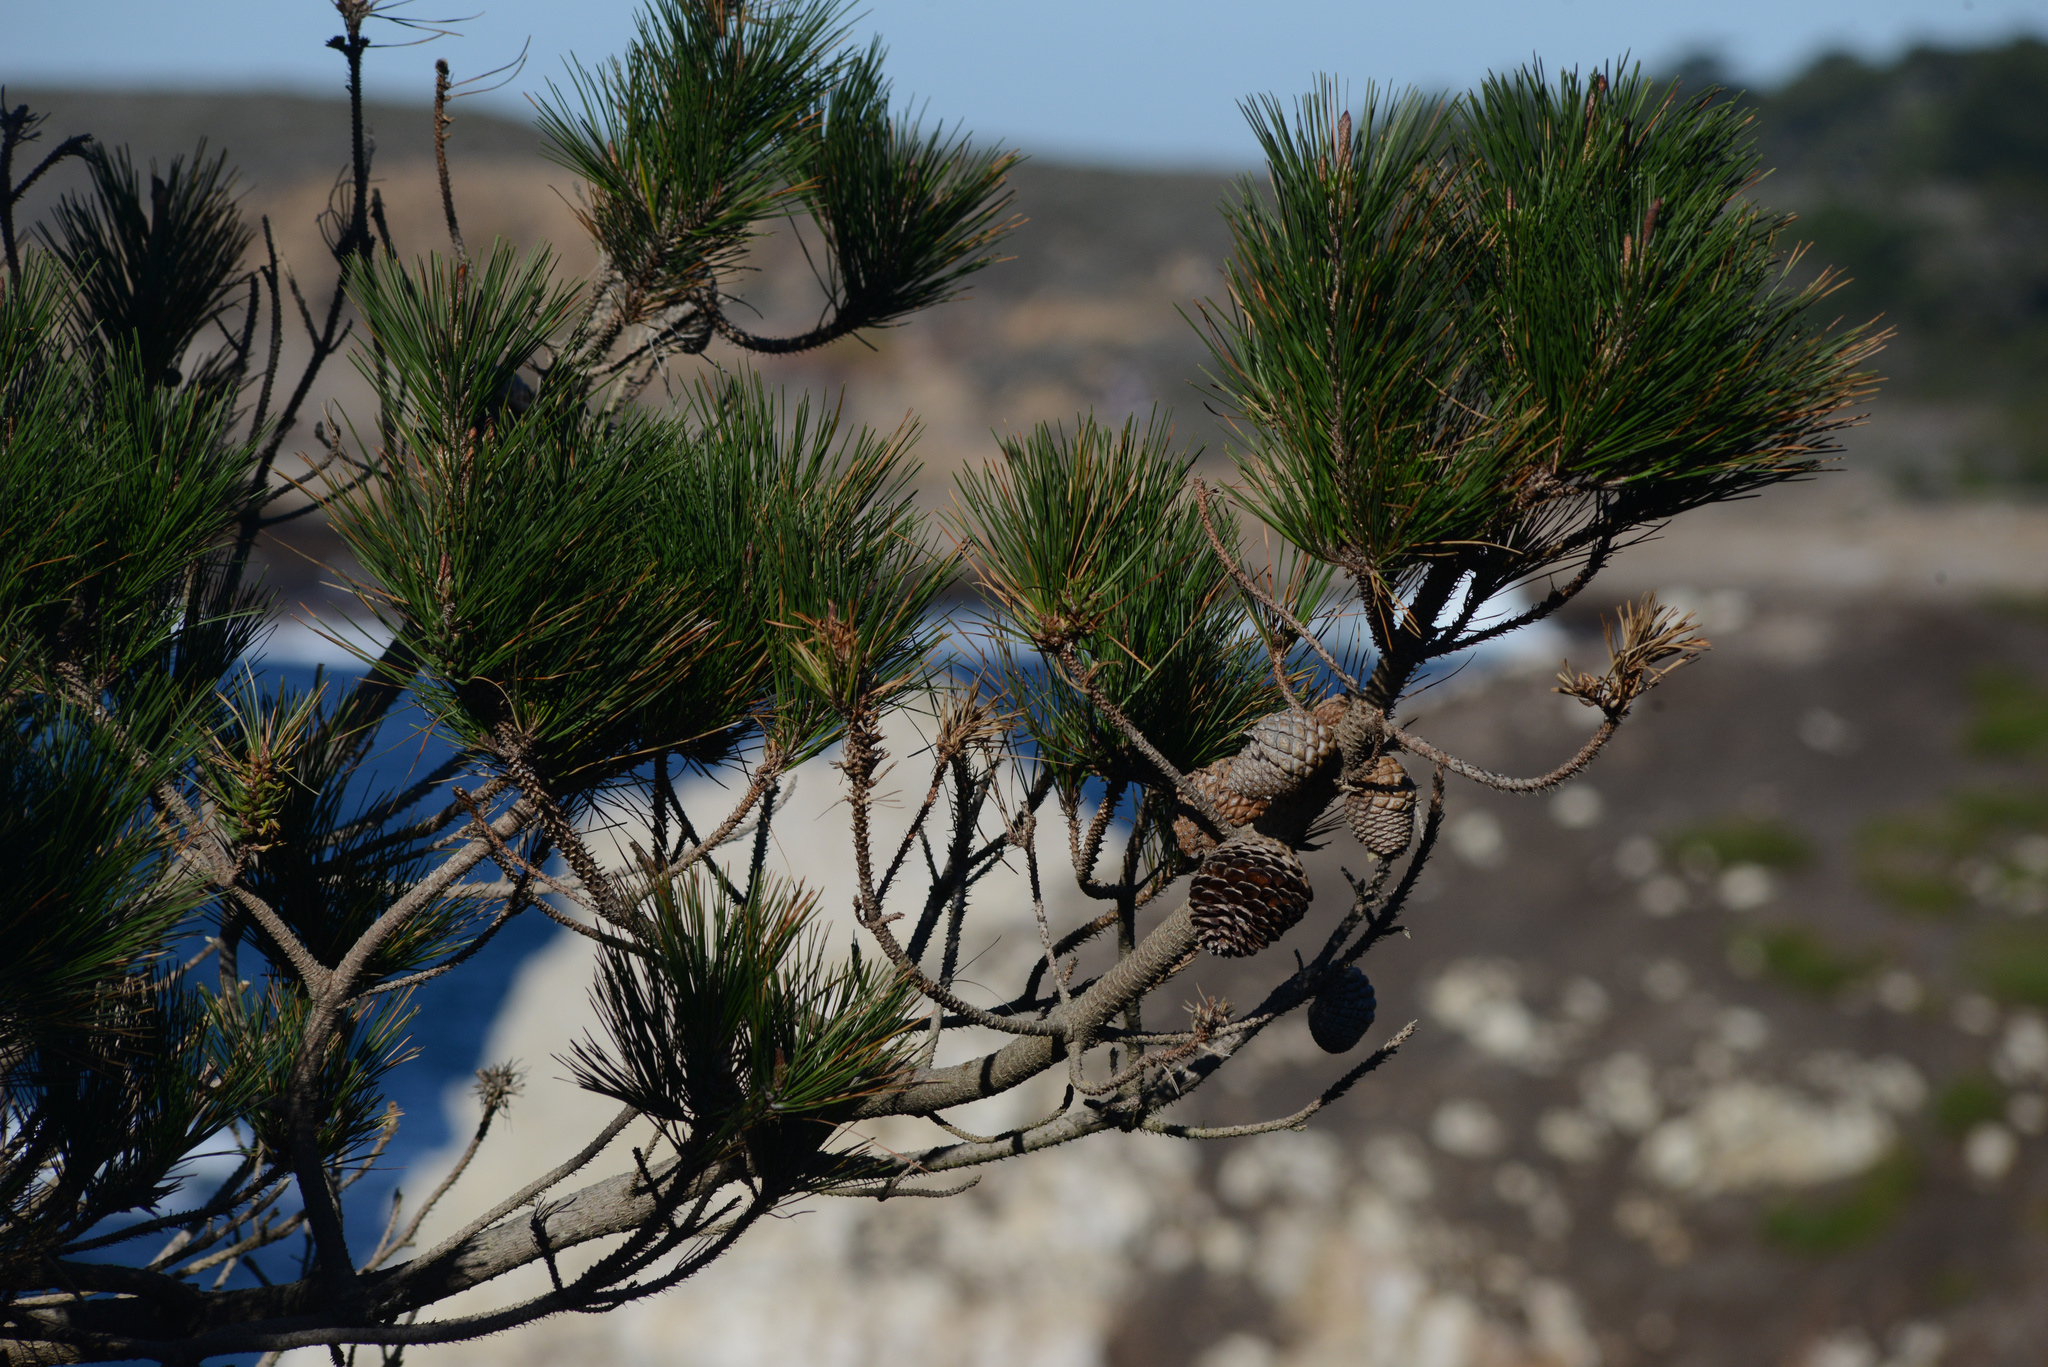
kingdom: Plantae
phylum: Tracheophyta
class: Pinopsida
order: Pinales
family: Pinaceae
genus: Pinus
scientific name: Pinus radiata
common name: Monterey pine
